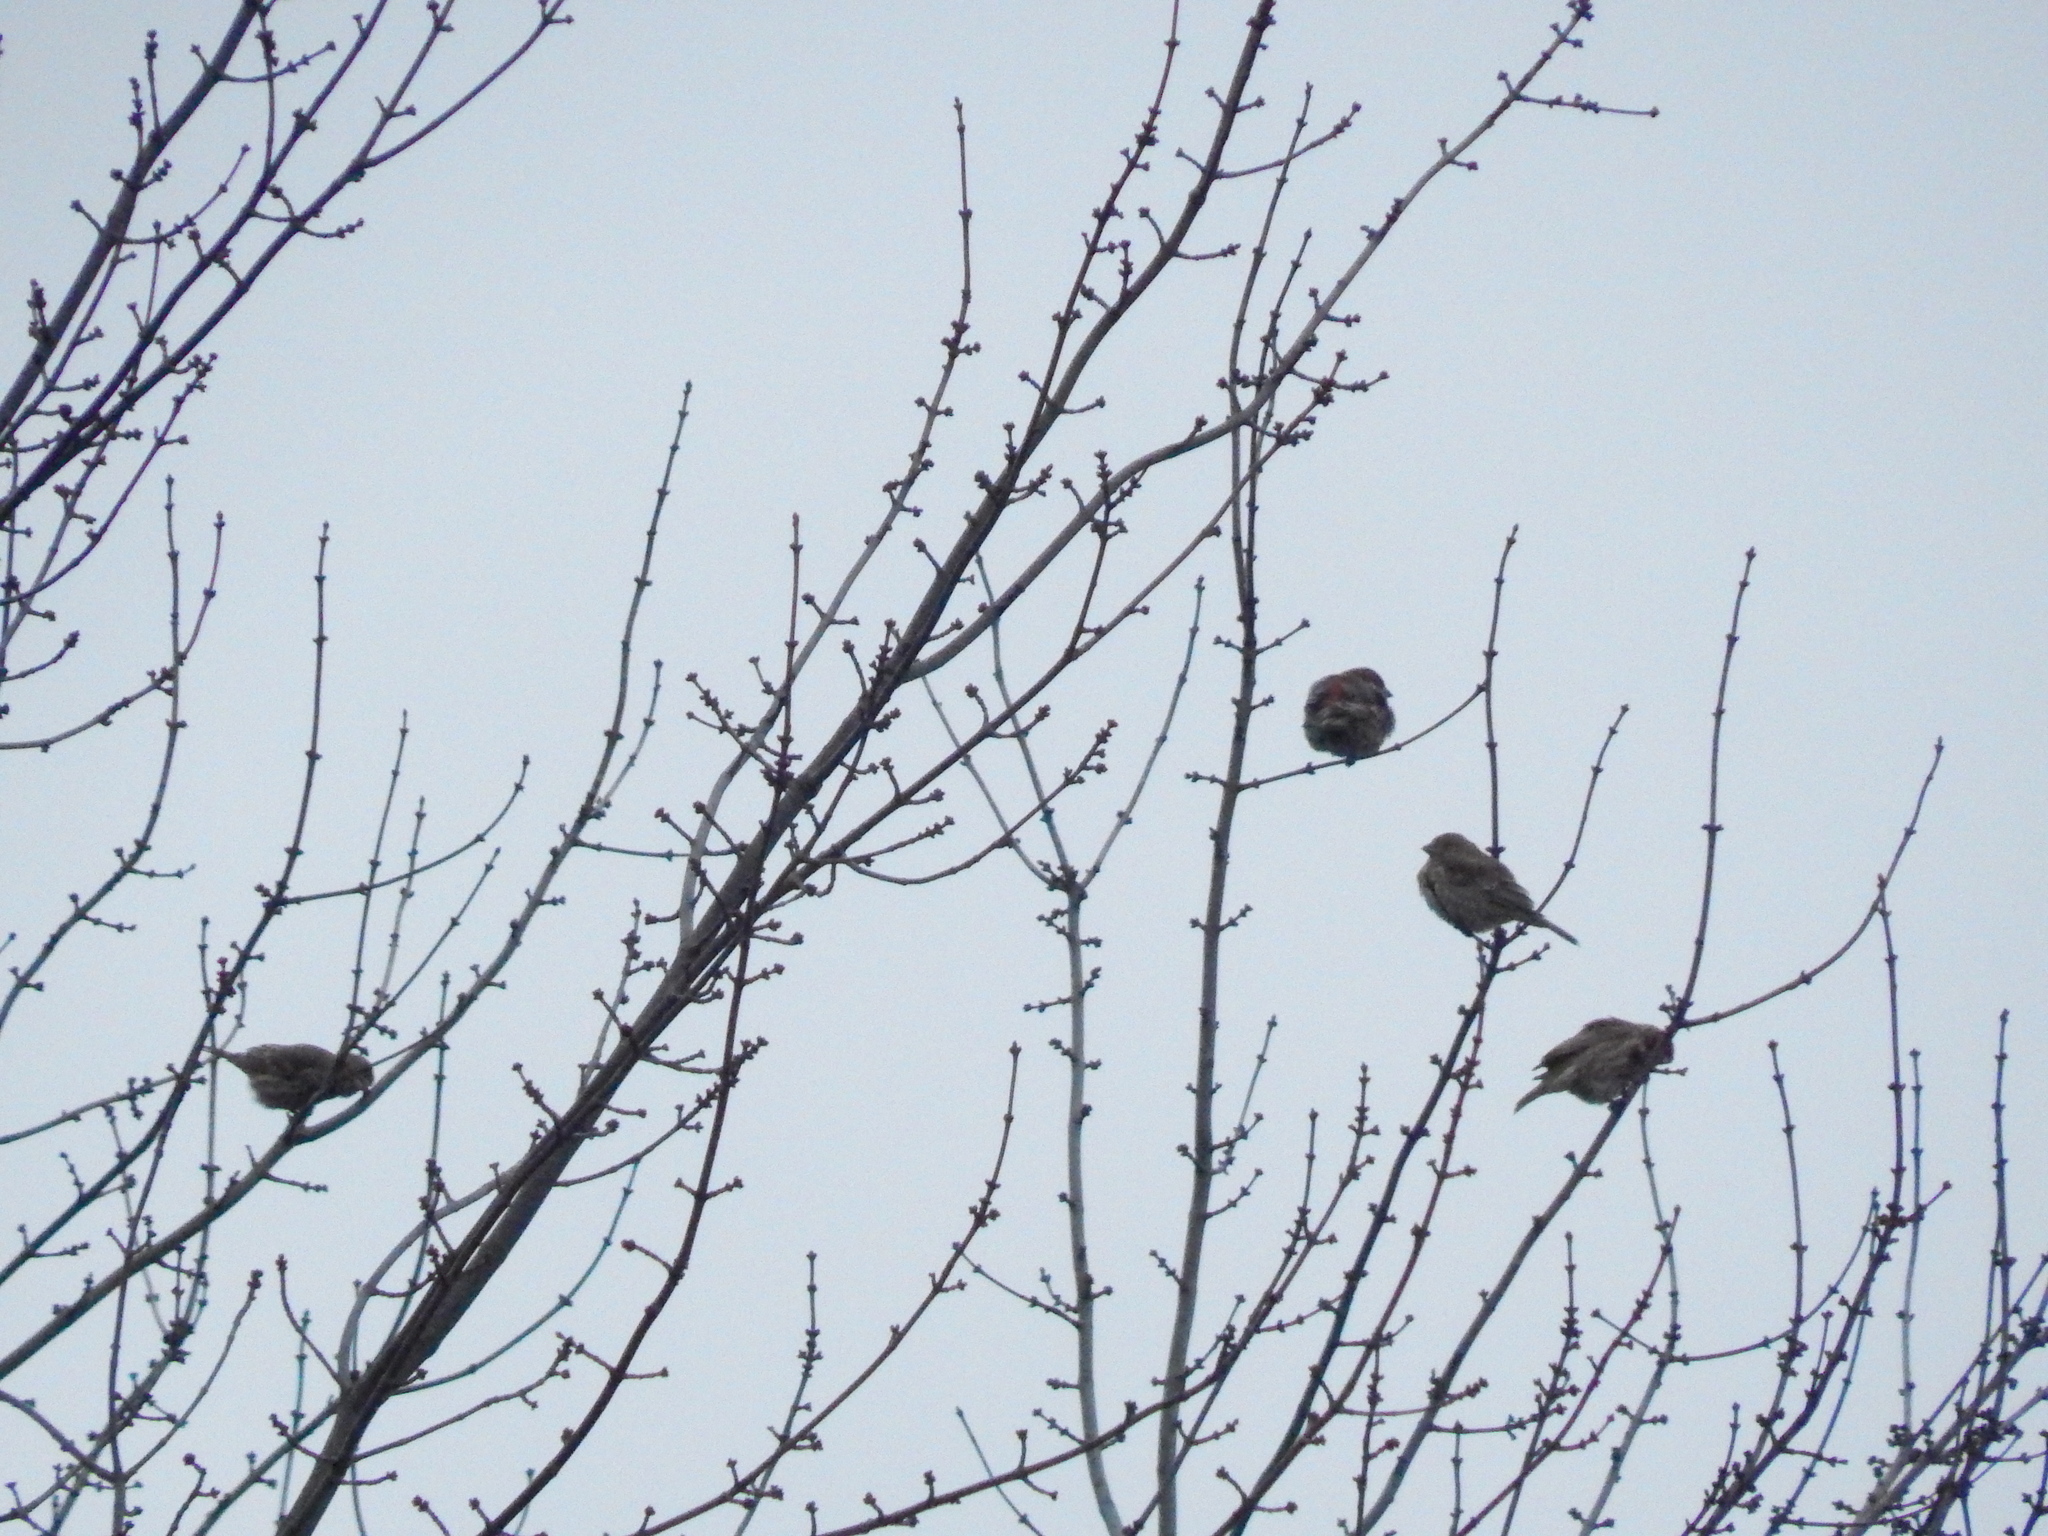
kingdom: Animalia
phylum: Chordata
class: Aves
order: Passeriformes
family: Fringillidae
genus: Haemorhous
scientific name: Haemorhous mexicanus
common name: House finch
